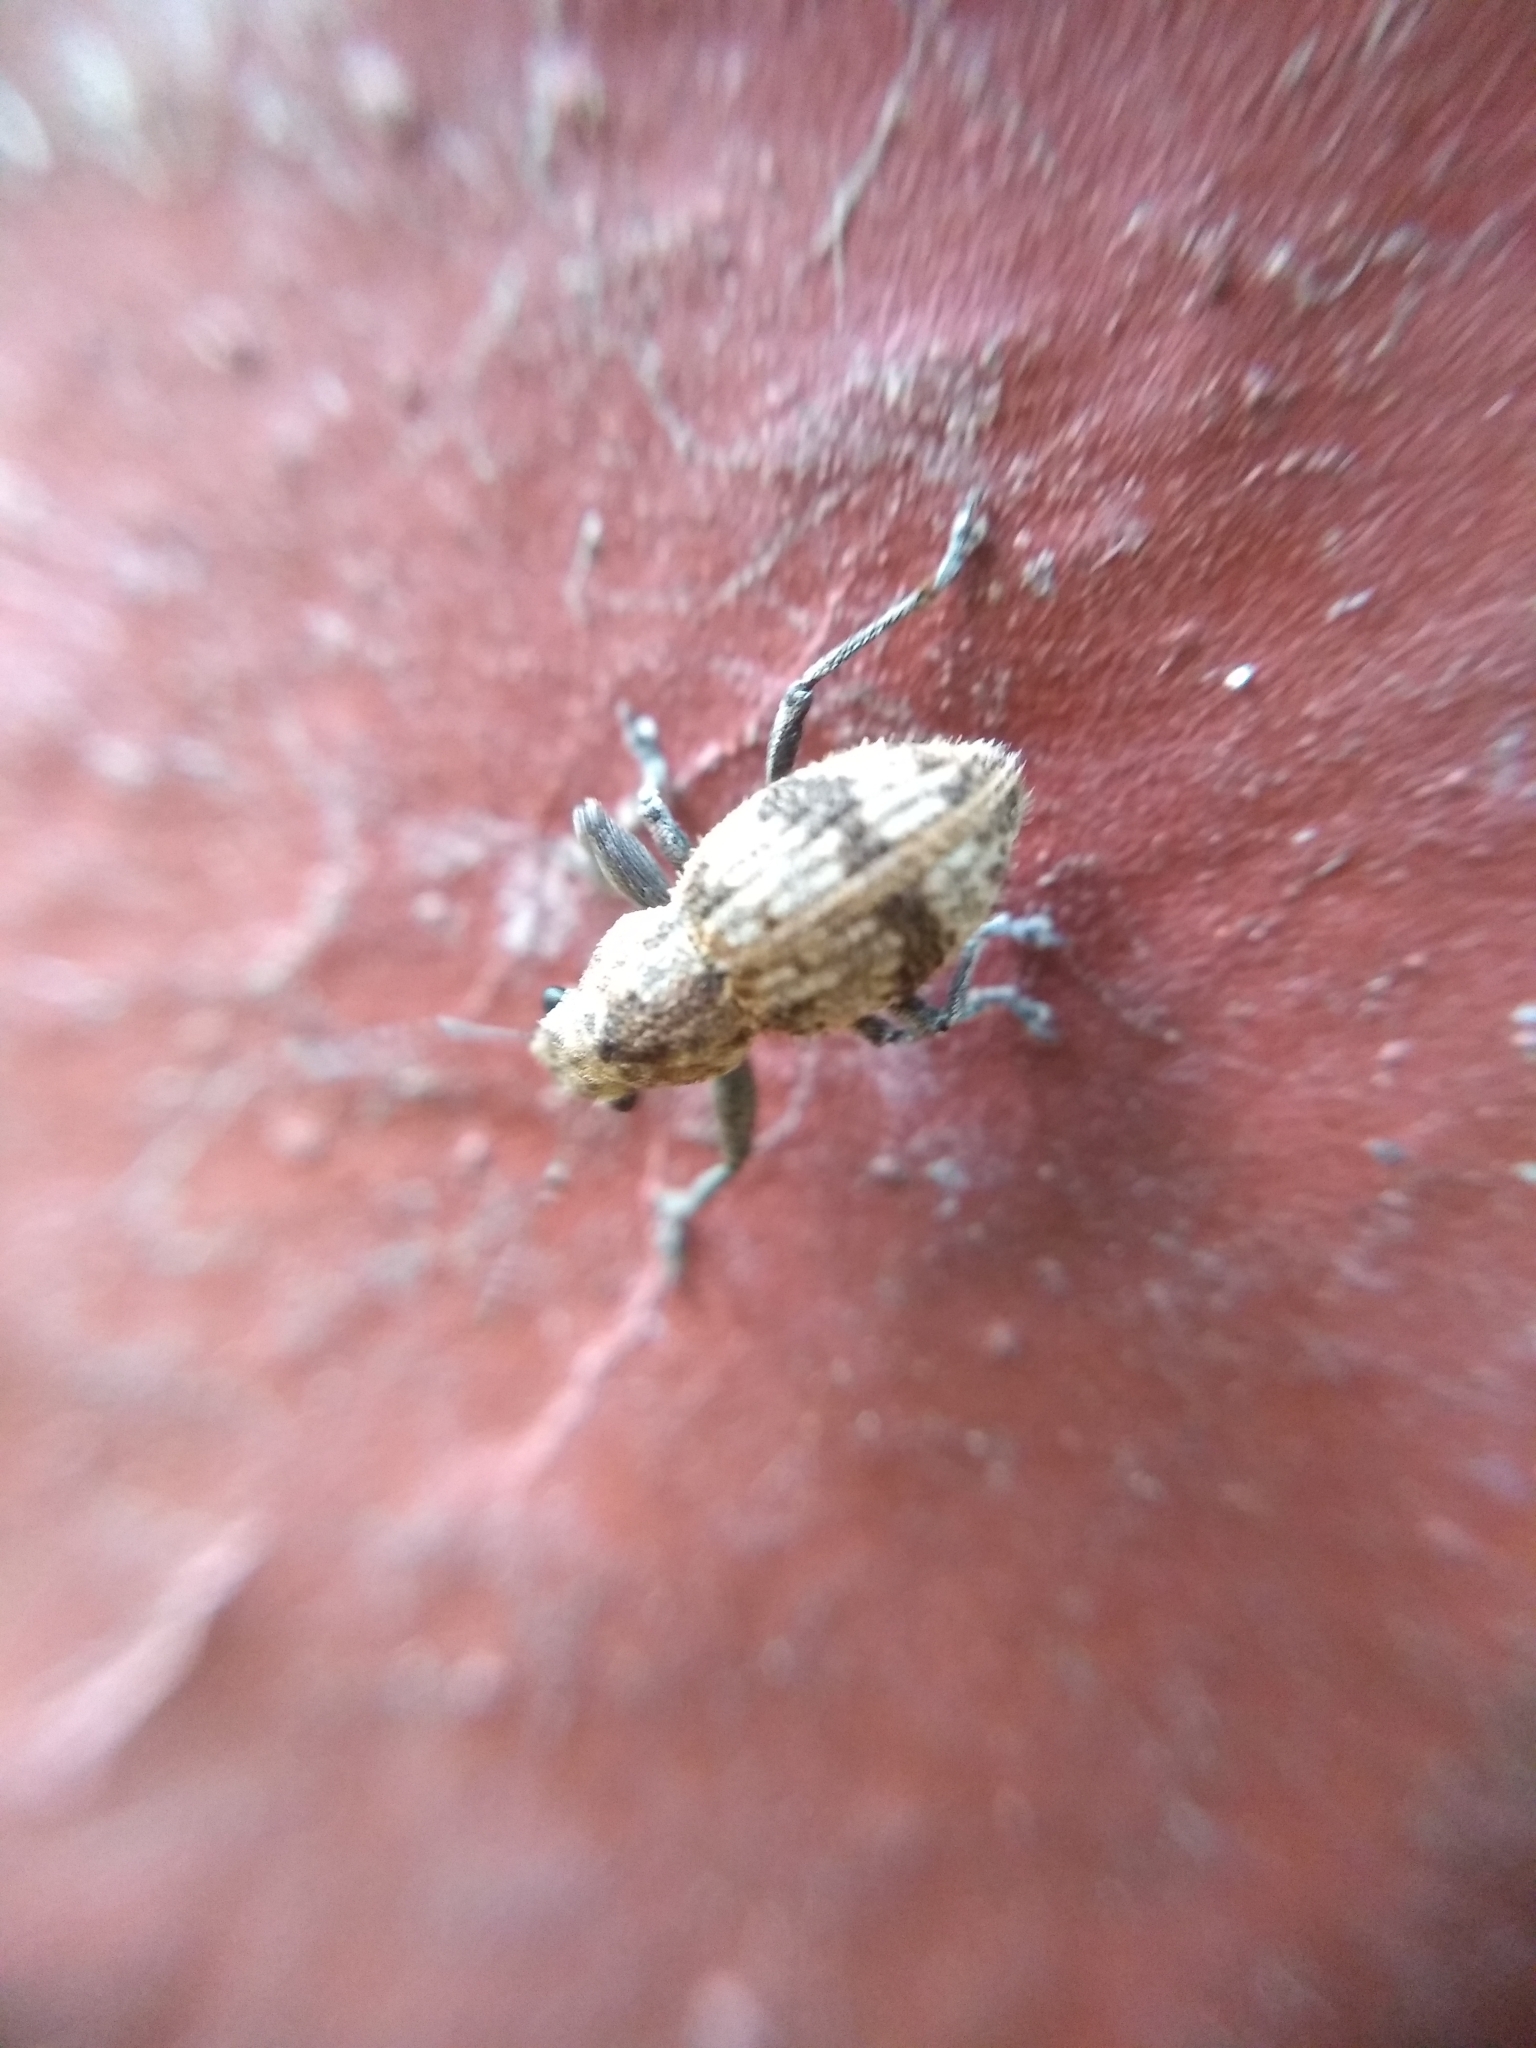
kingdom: Animalia
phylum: Arthropoda
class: Insecta
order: Coleoptera
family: Curculionidae
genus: Pantomorus
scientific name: Pantomorus
